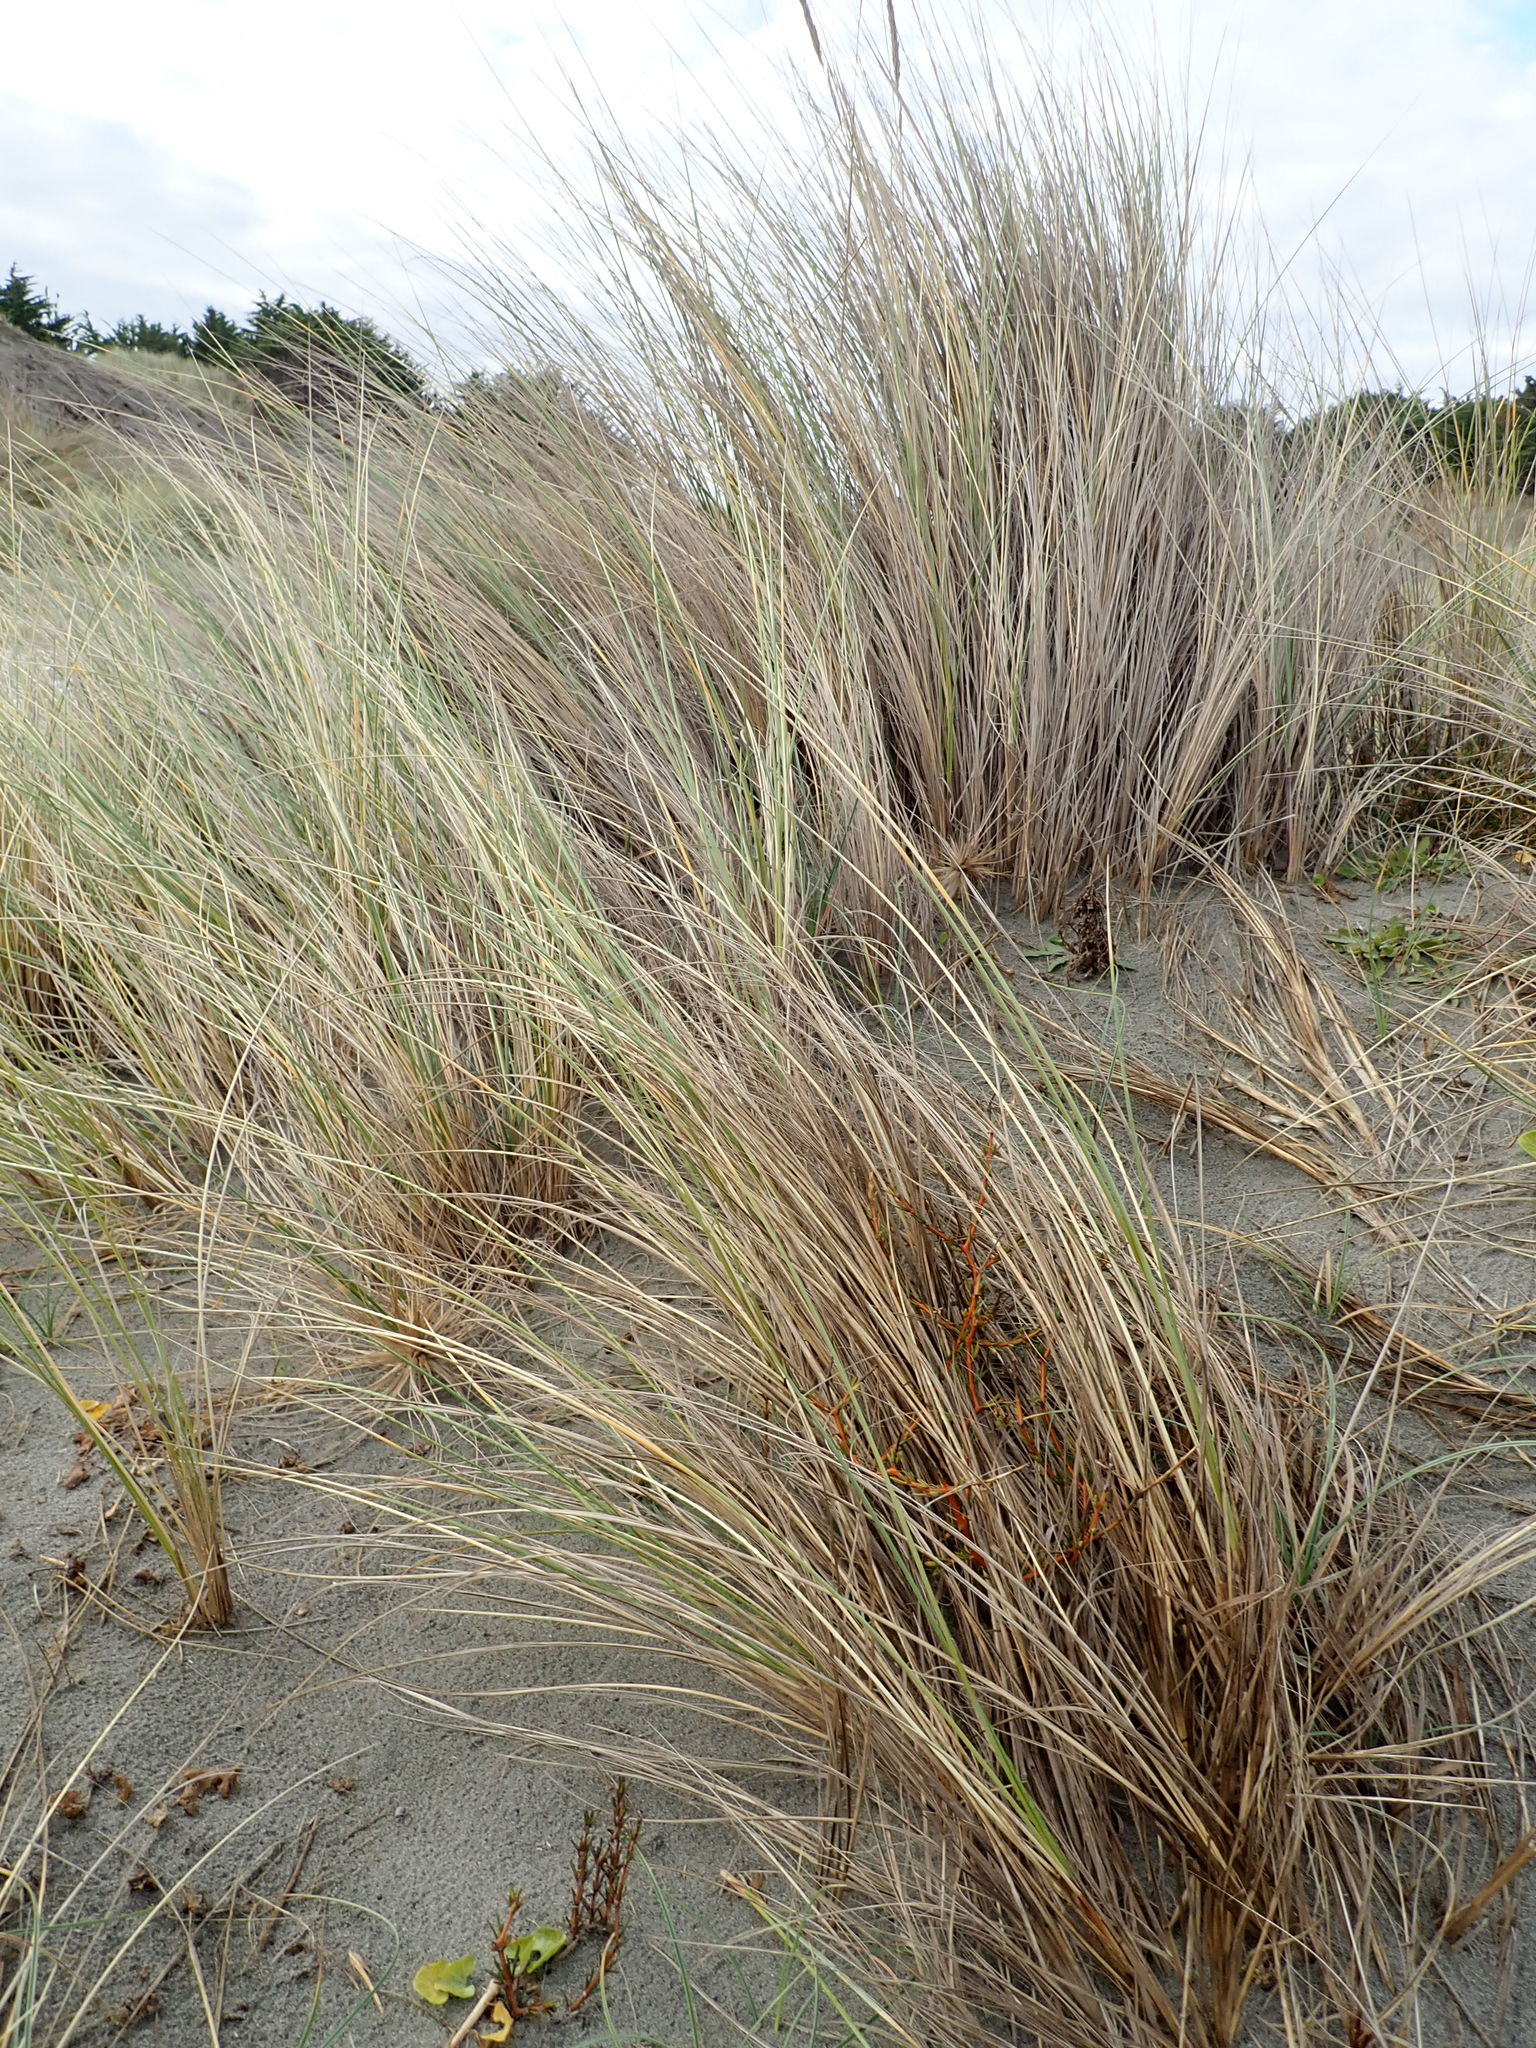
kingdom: Plantae
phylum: Tracheophyta
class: Liliopsida
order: Poales
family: Poaceae
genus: Calamagrostis
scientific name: Calamagrostis arenaria
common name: European beachgrass
